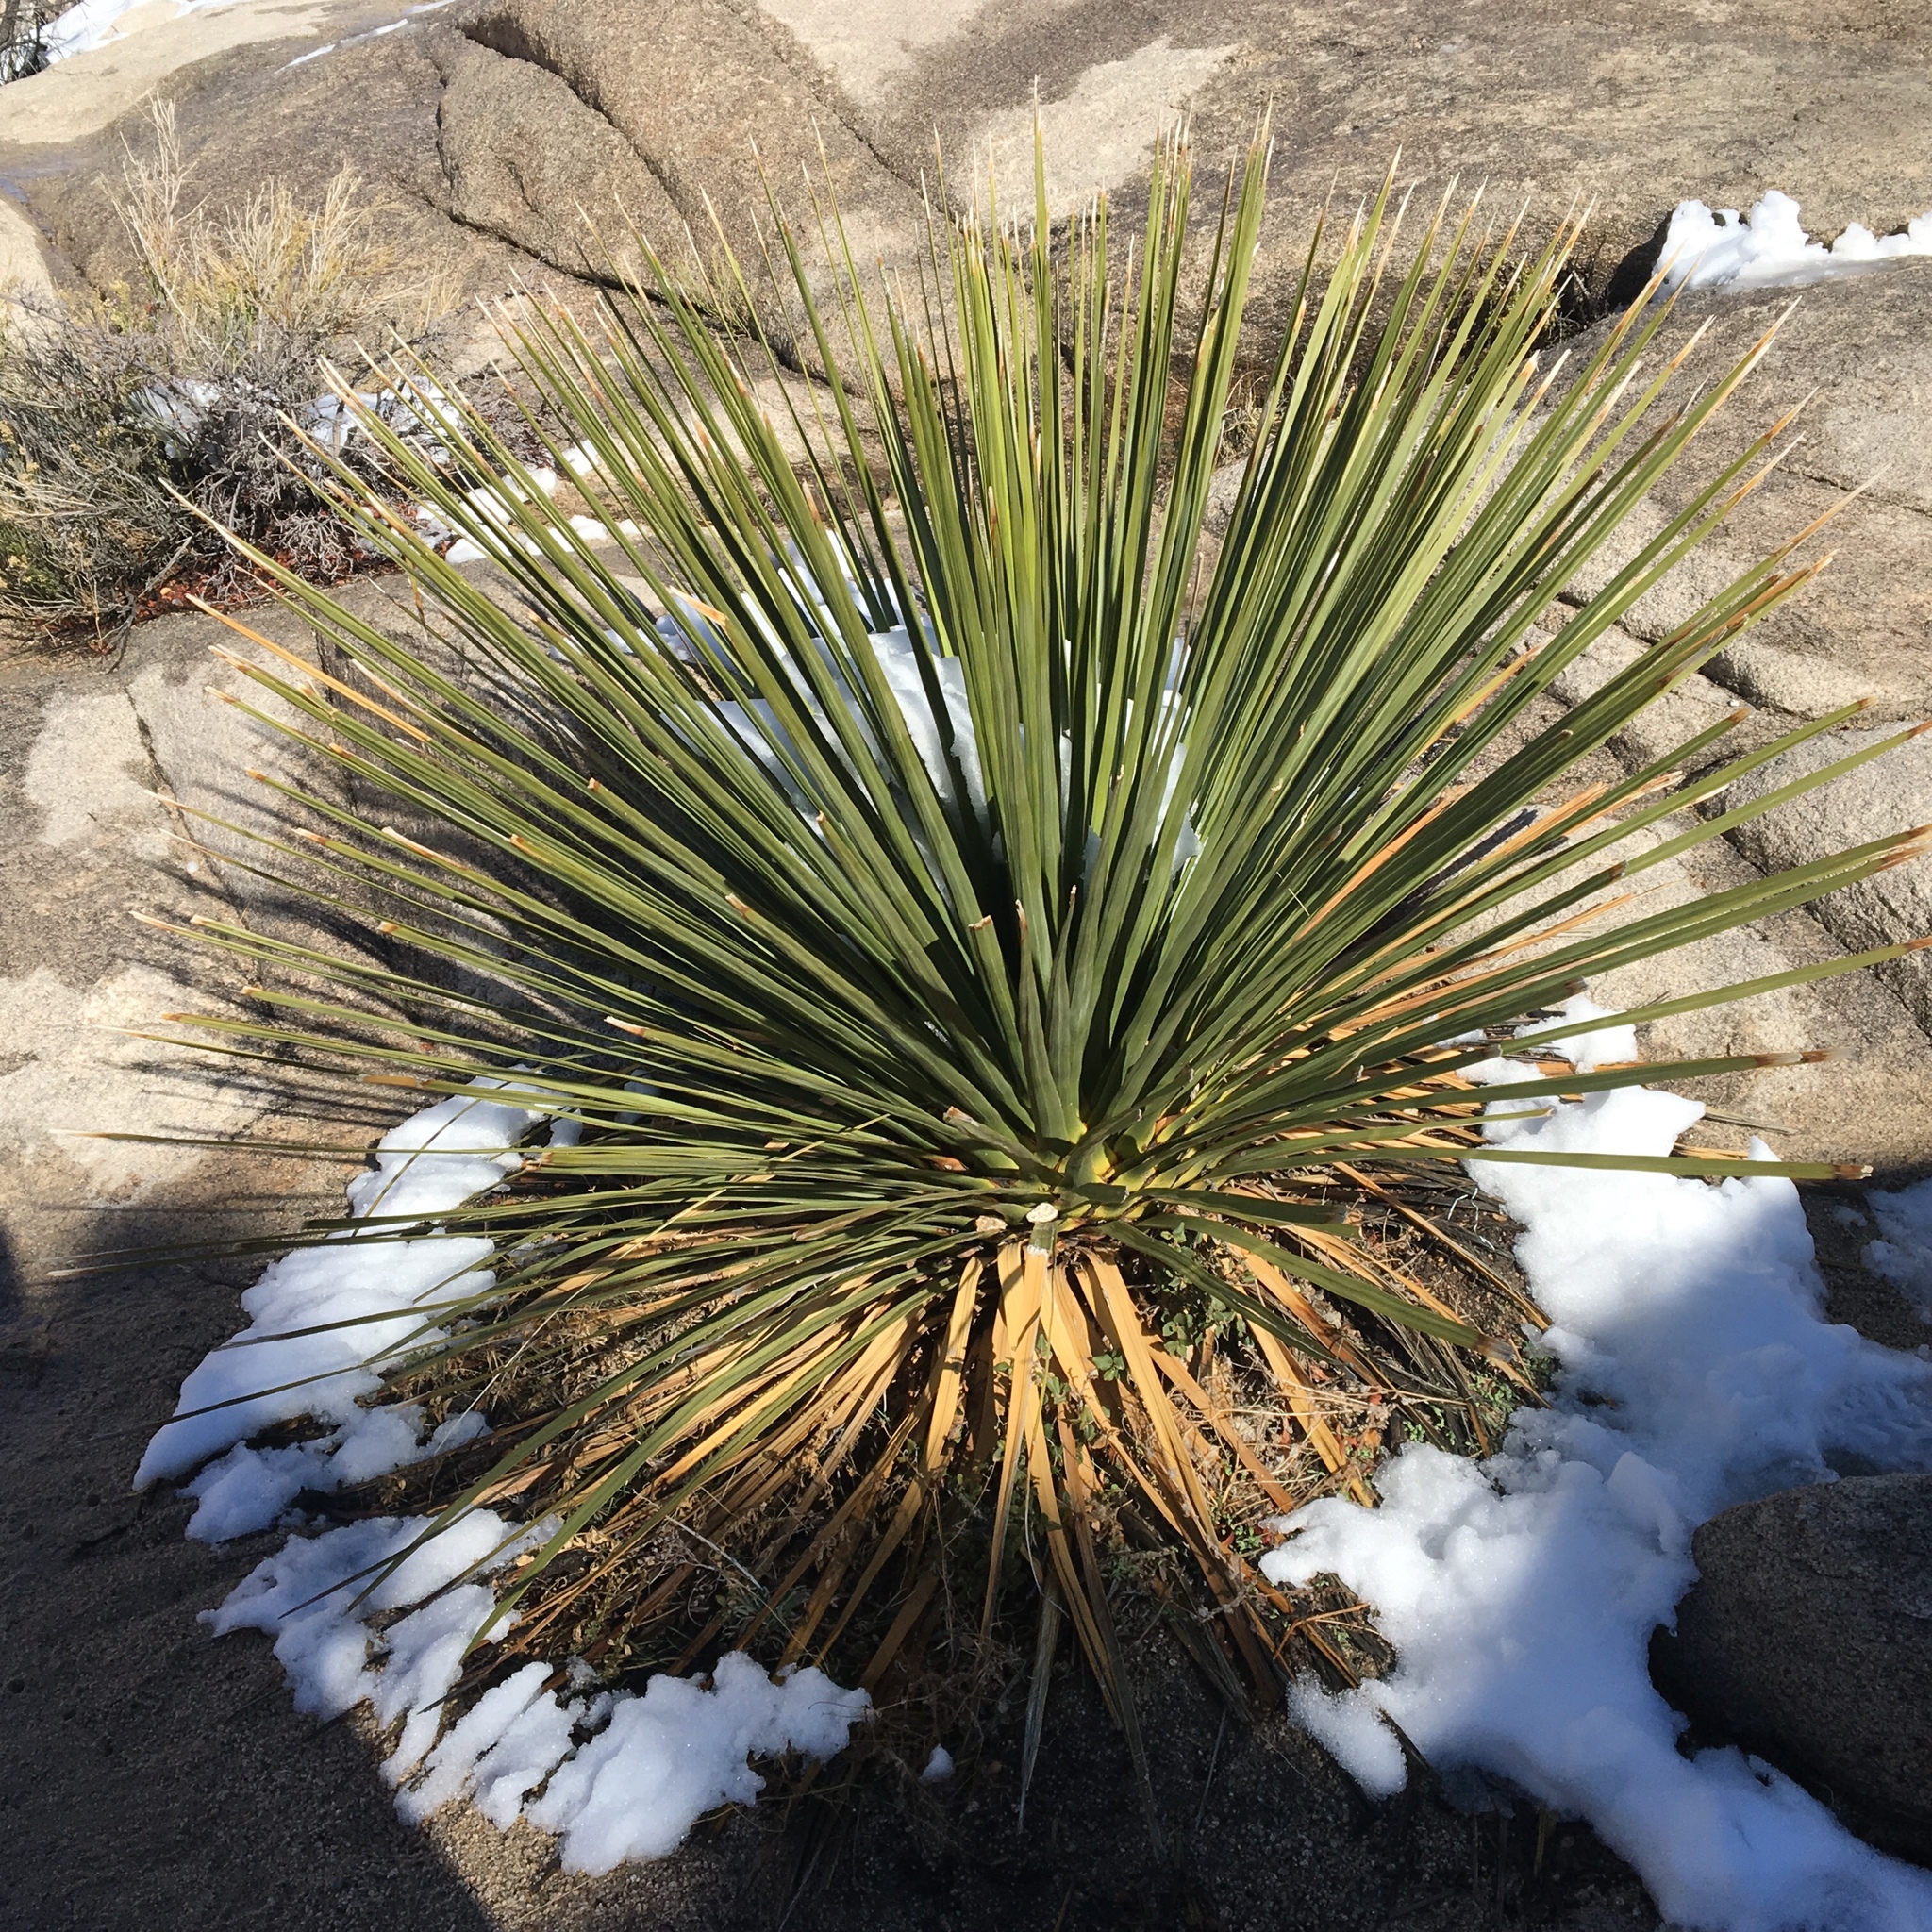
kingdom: Plantae
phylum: Tracheophyta
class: Liliopsida
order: Asparagales
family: Asparagaceae
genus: Nolina
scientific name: Nolina parryi
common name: Parry nolina
